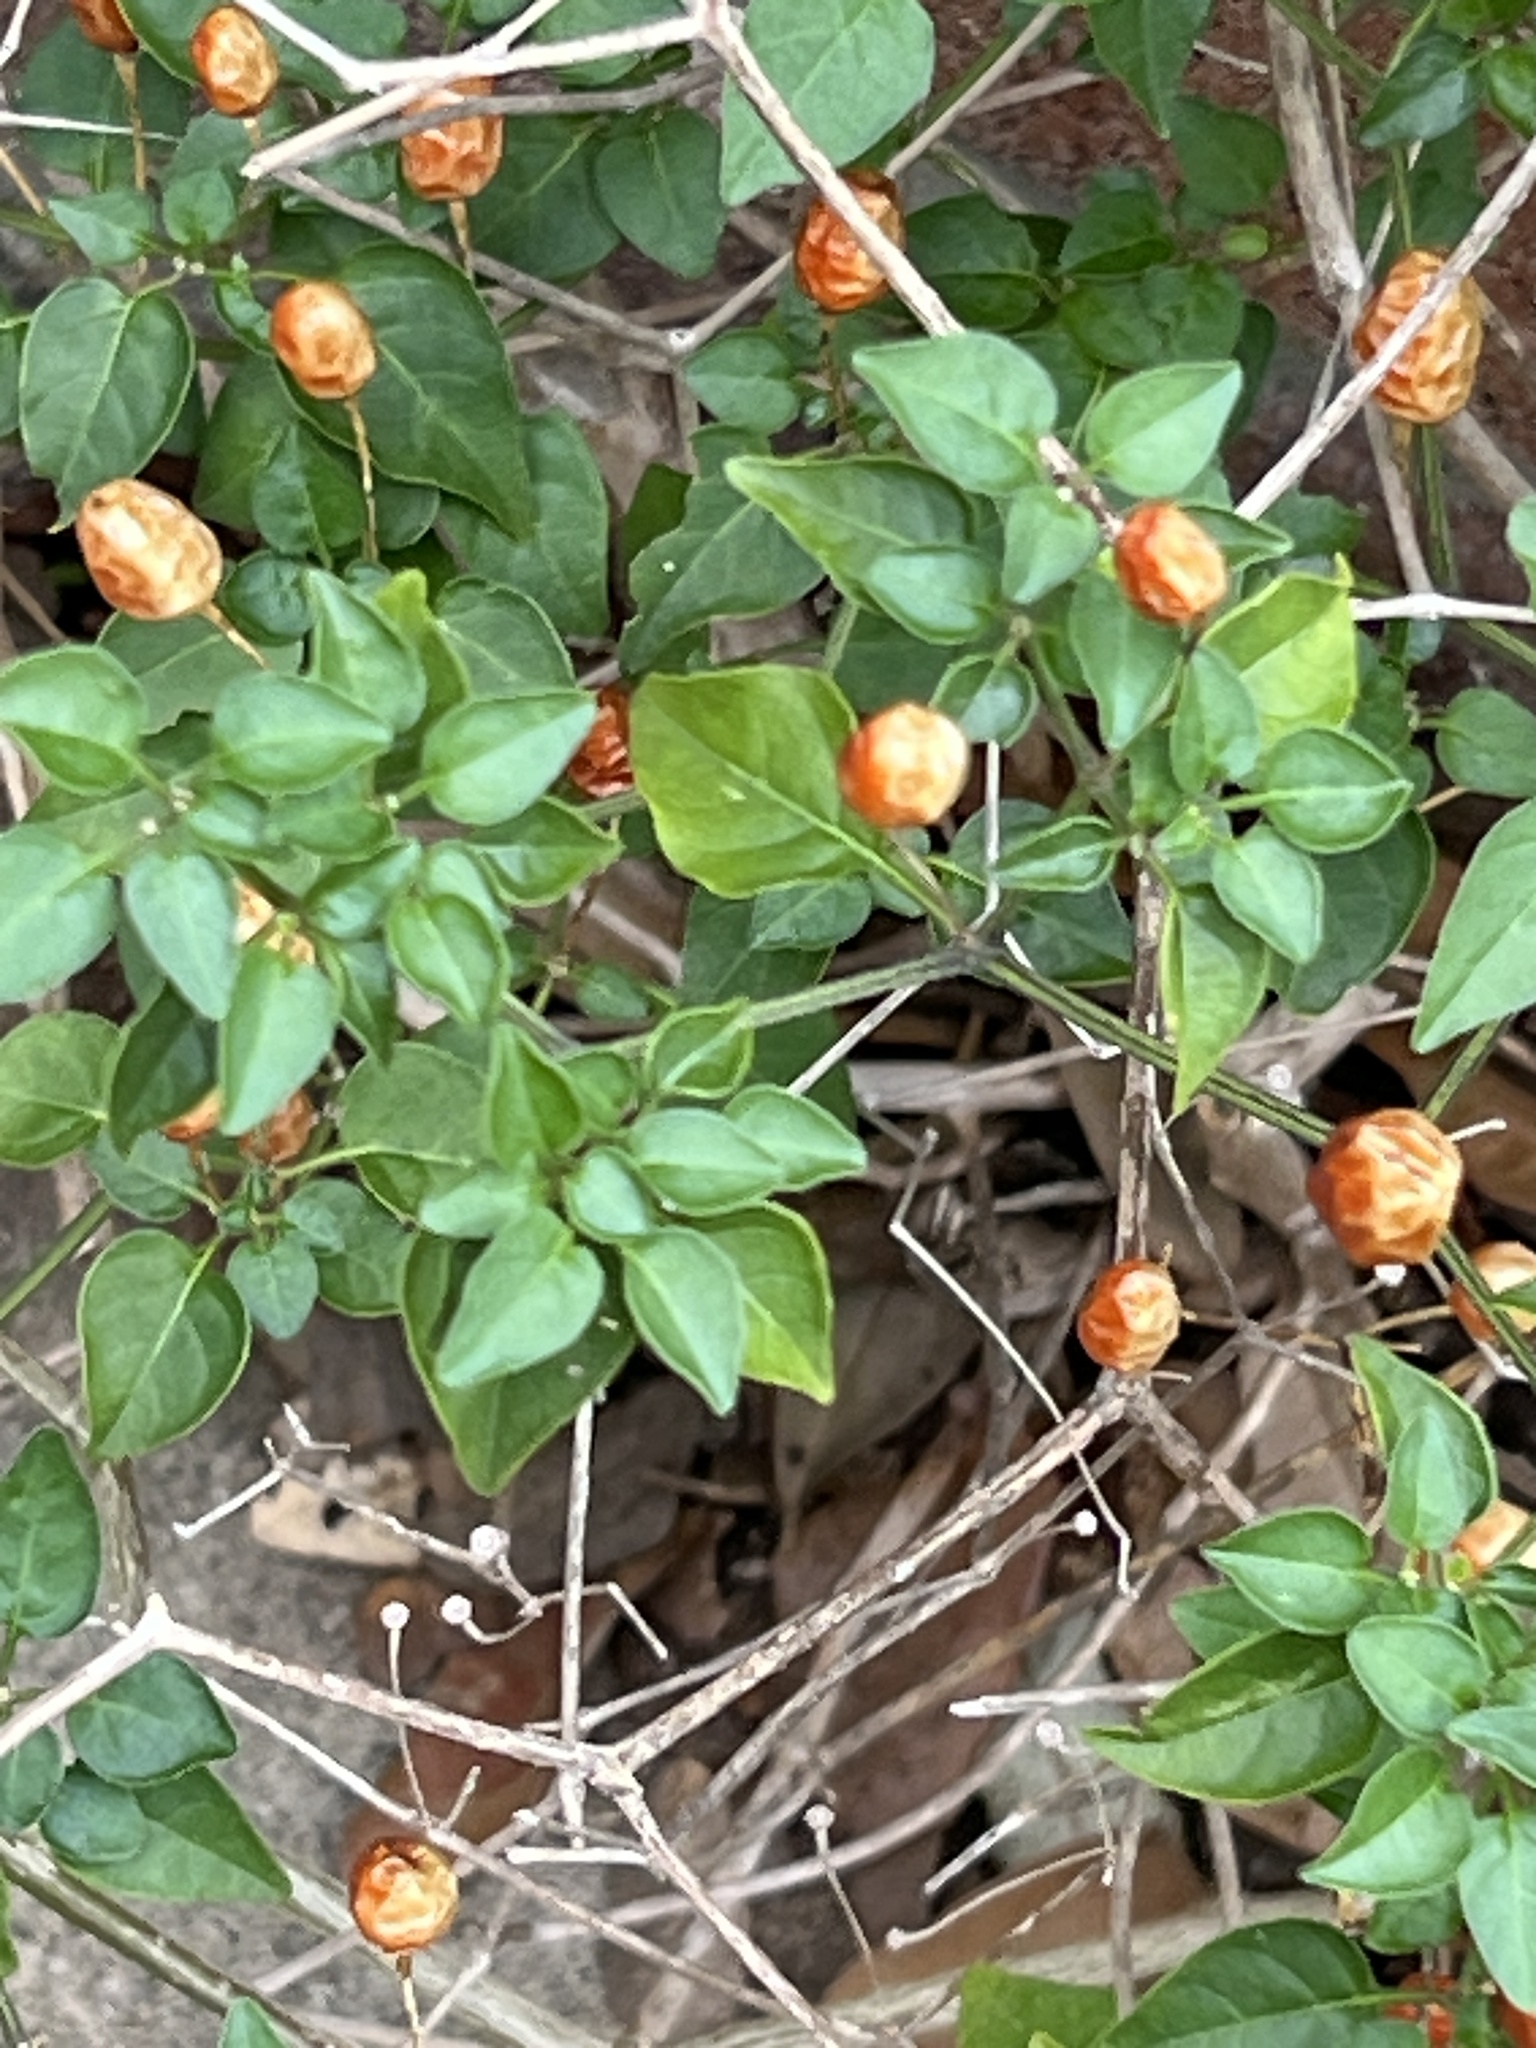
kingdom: Plantae
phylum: Tracheophyta
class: Magnoliopsida
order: Solanales
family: Solanaceae
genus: Capsicum
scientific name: Capsicum annuum
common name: Sweet pepper
